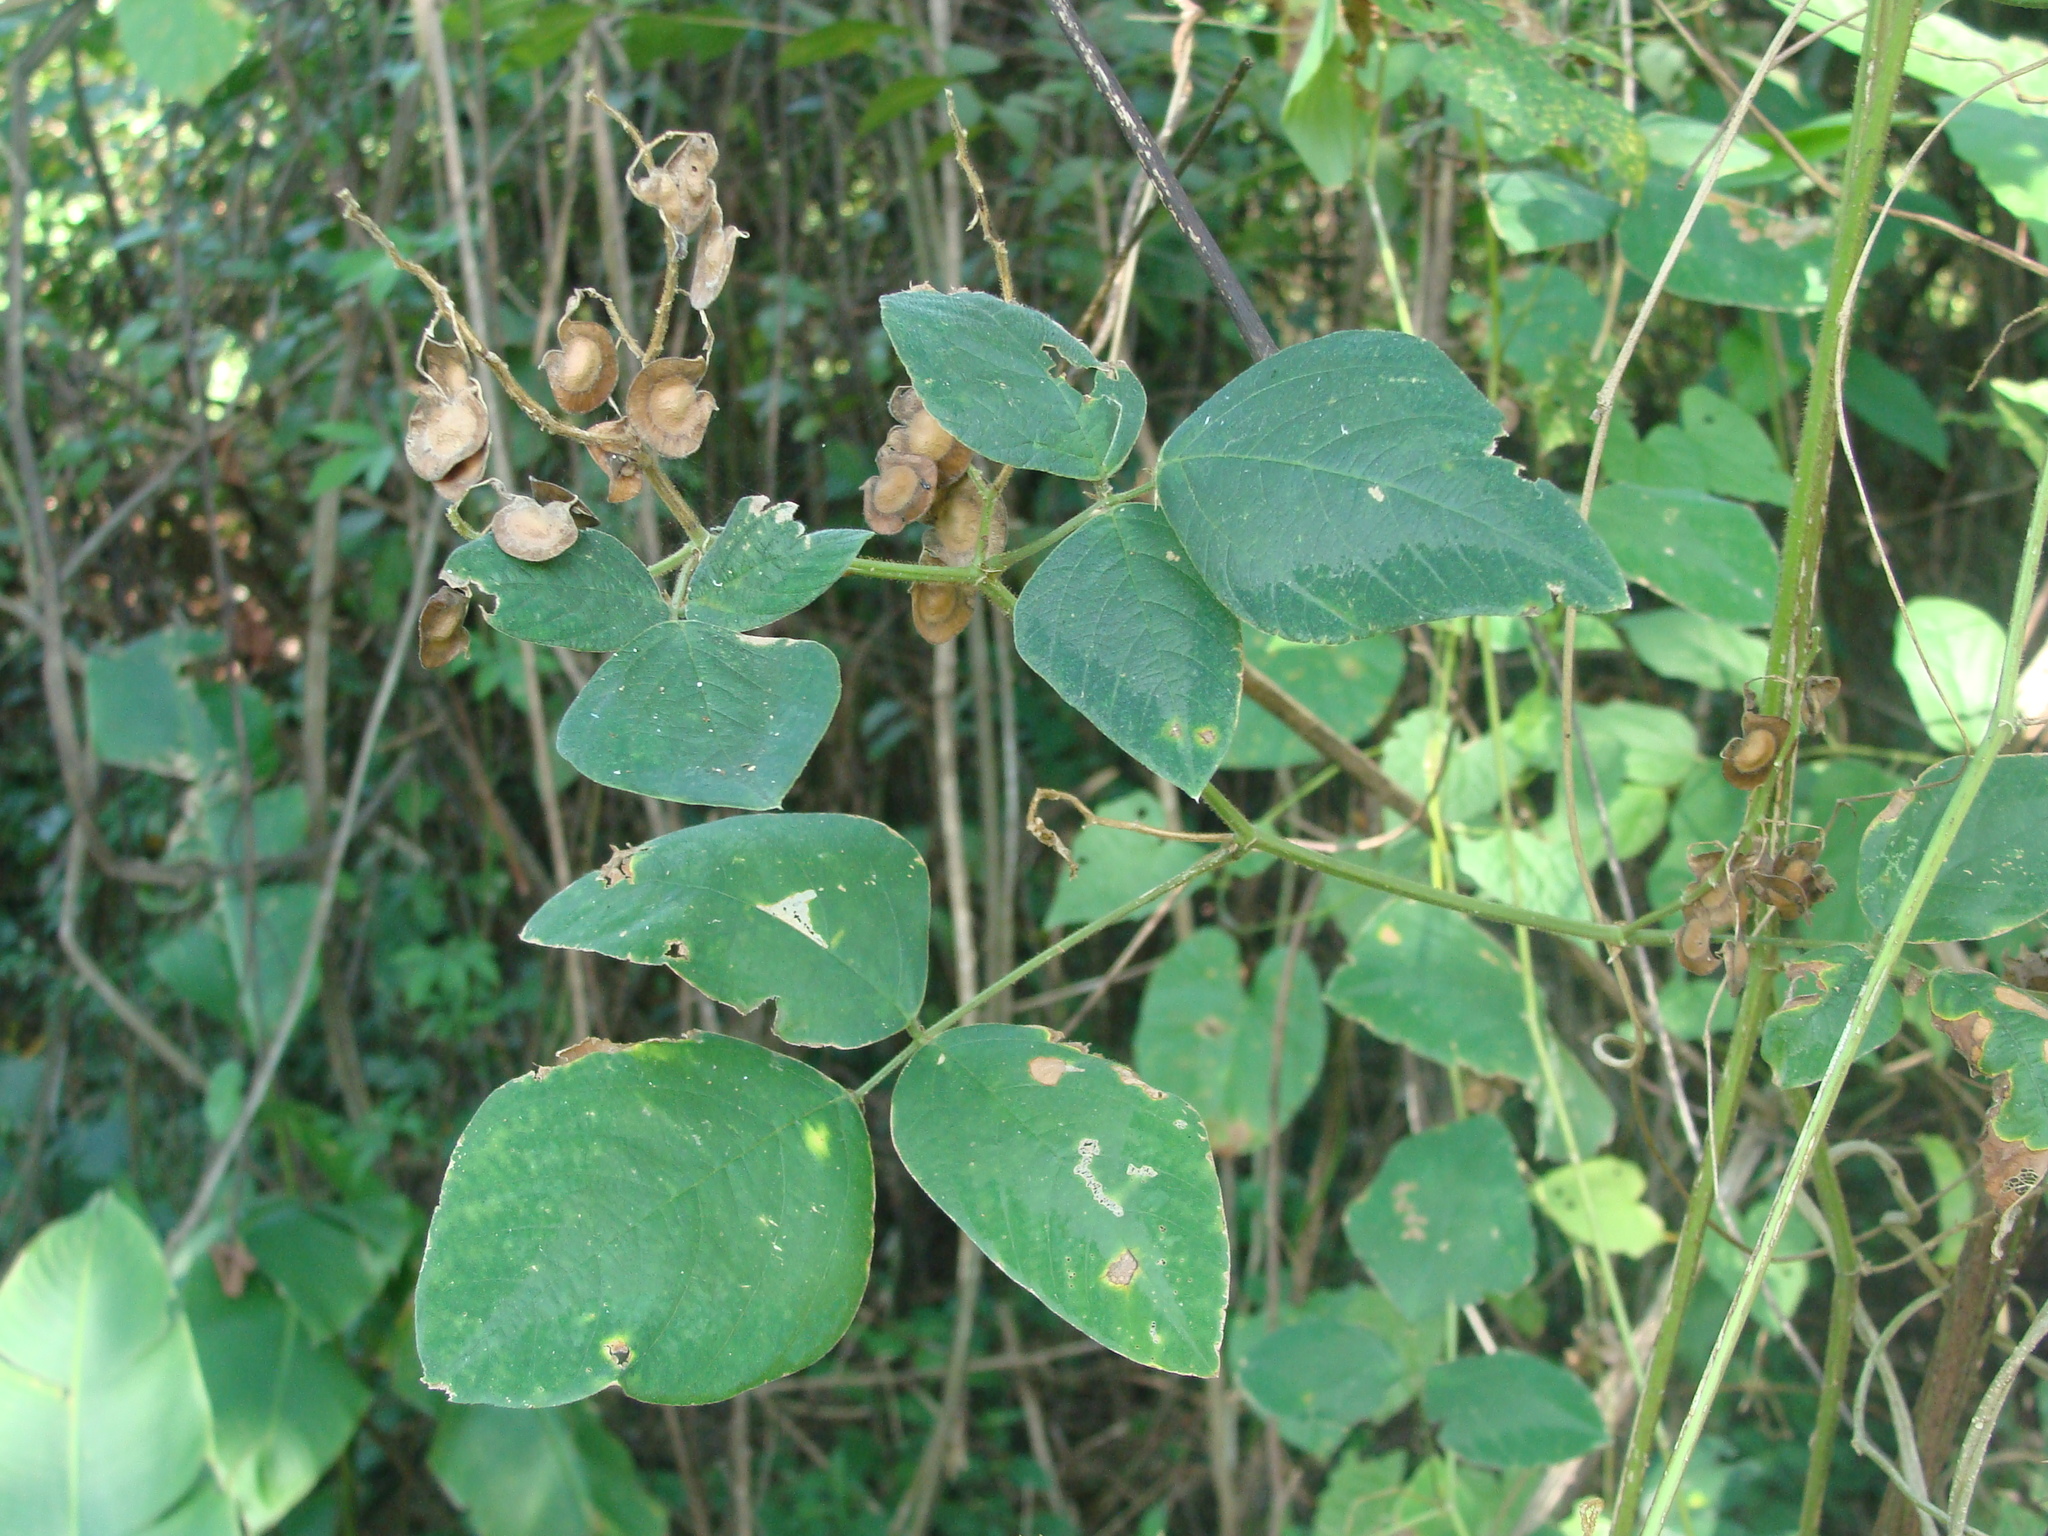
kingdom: Plantae
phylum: Tracheophyta
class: Magnoliopsida
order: Fabales
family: Fabaceae
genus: Desmodium
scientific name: Desmodium infractum
